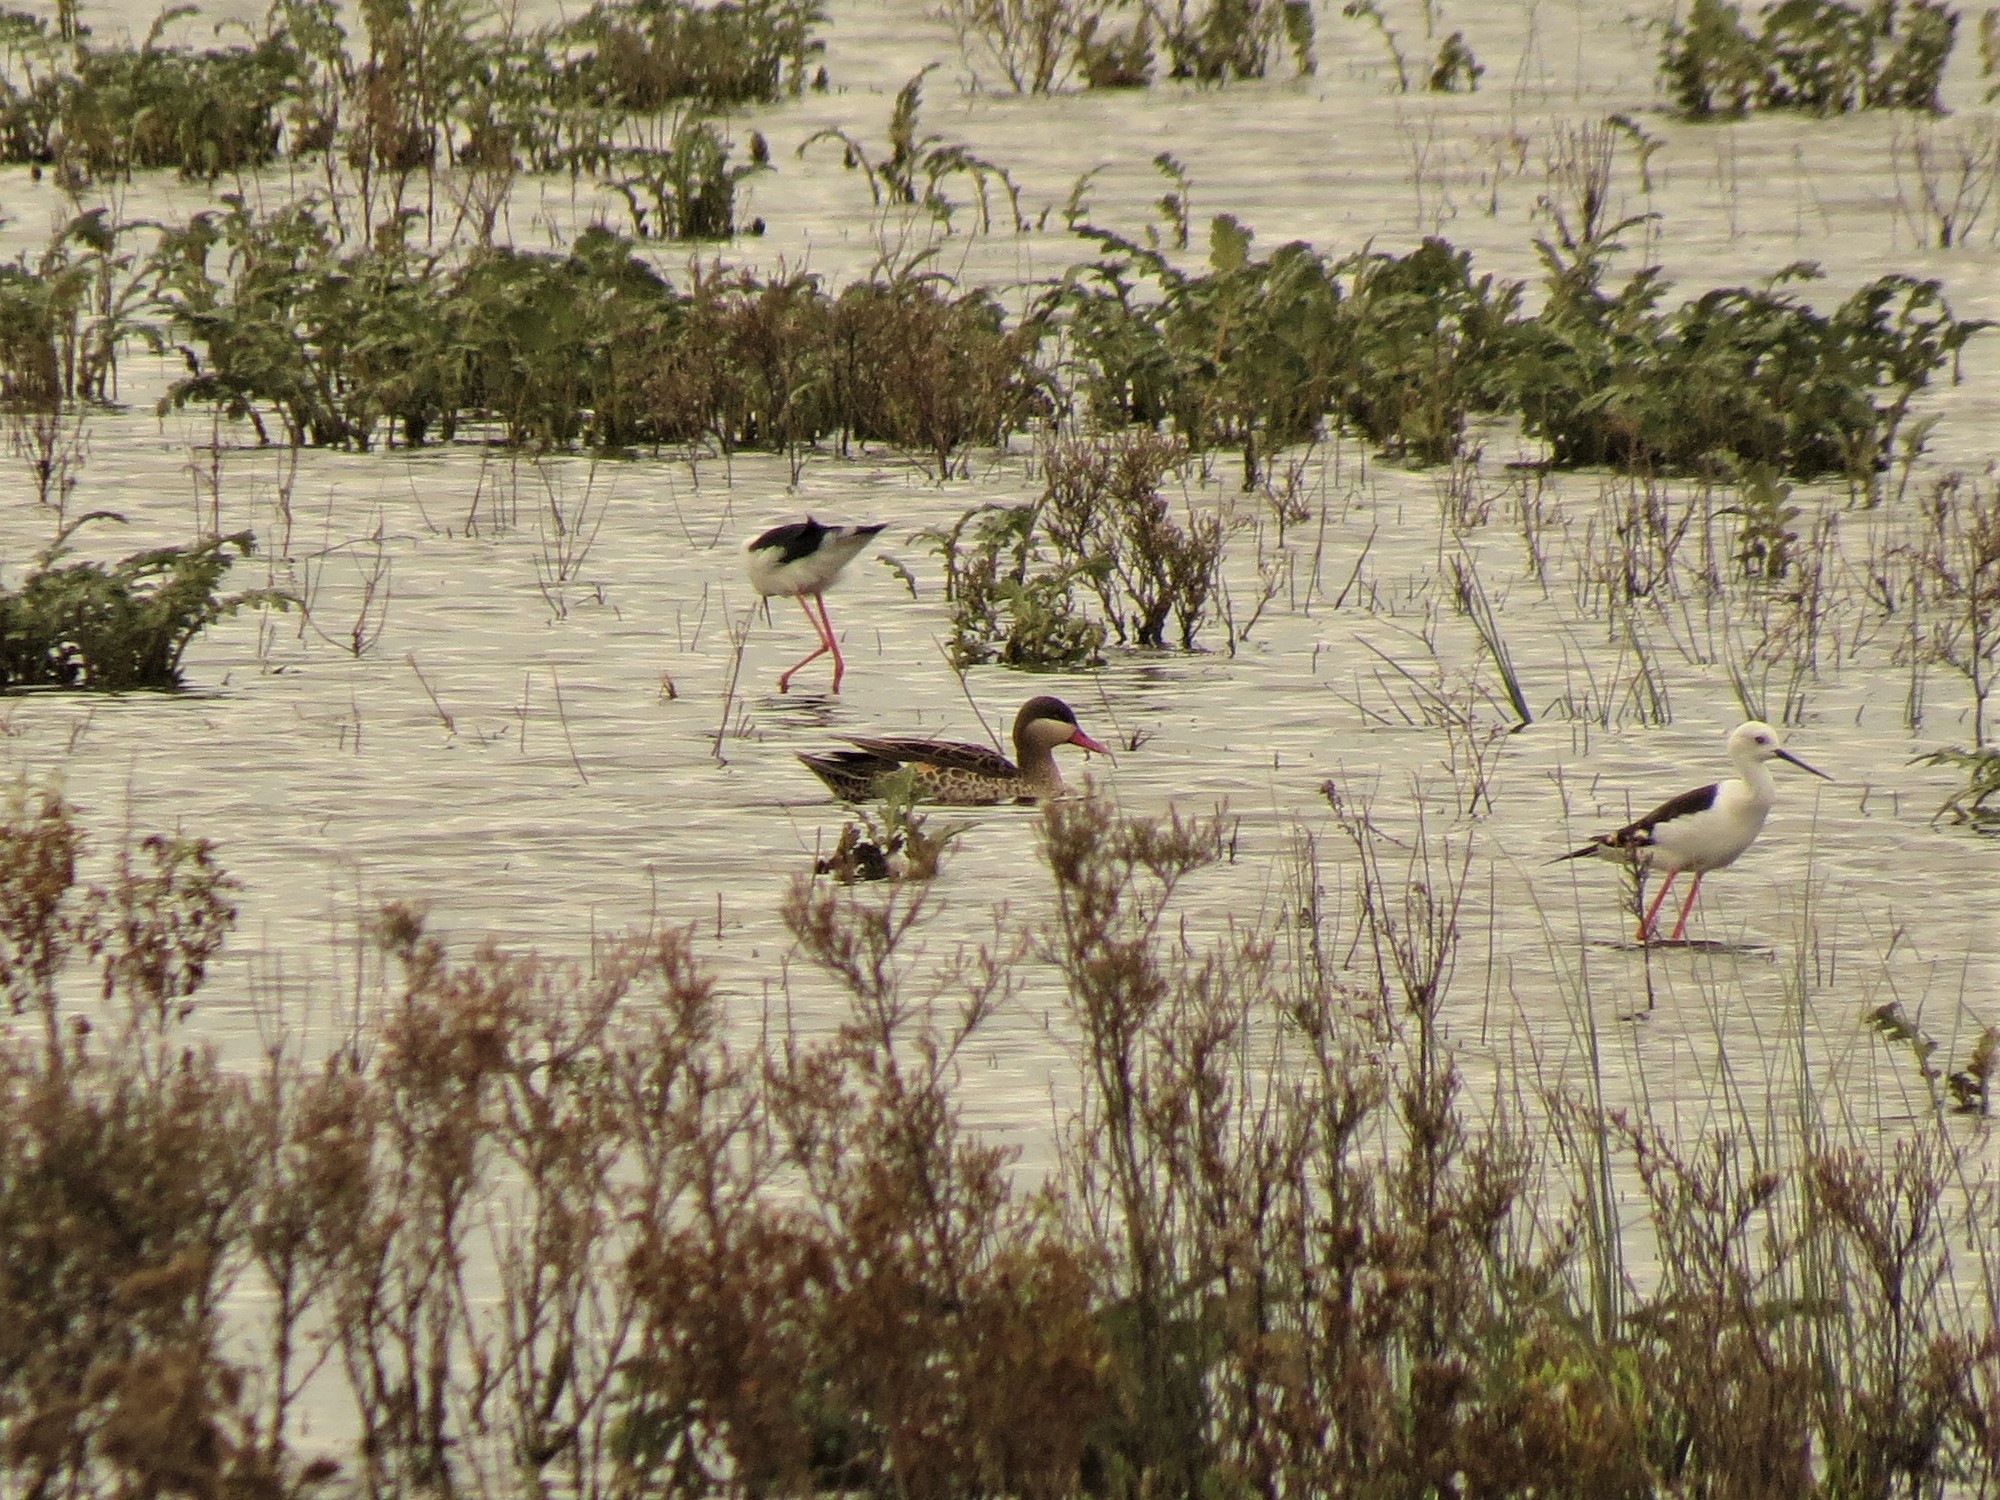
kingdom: Animalia
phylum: Chordata
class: Aves
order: Anseriformes
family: Anatidae
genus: Anas
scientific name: Anas erythrorhyncha
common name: Red-billed teal
